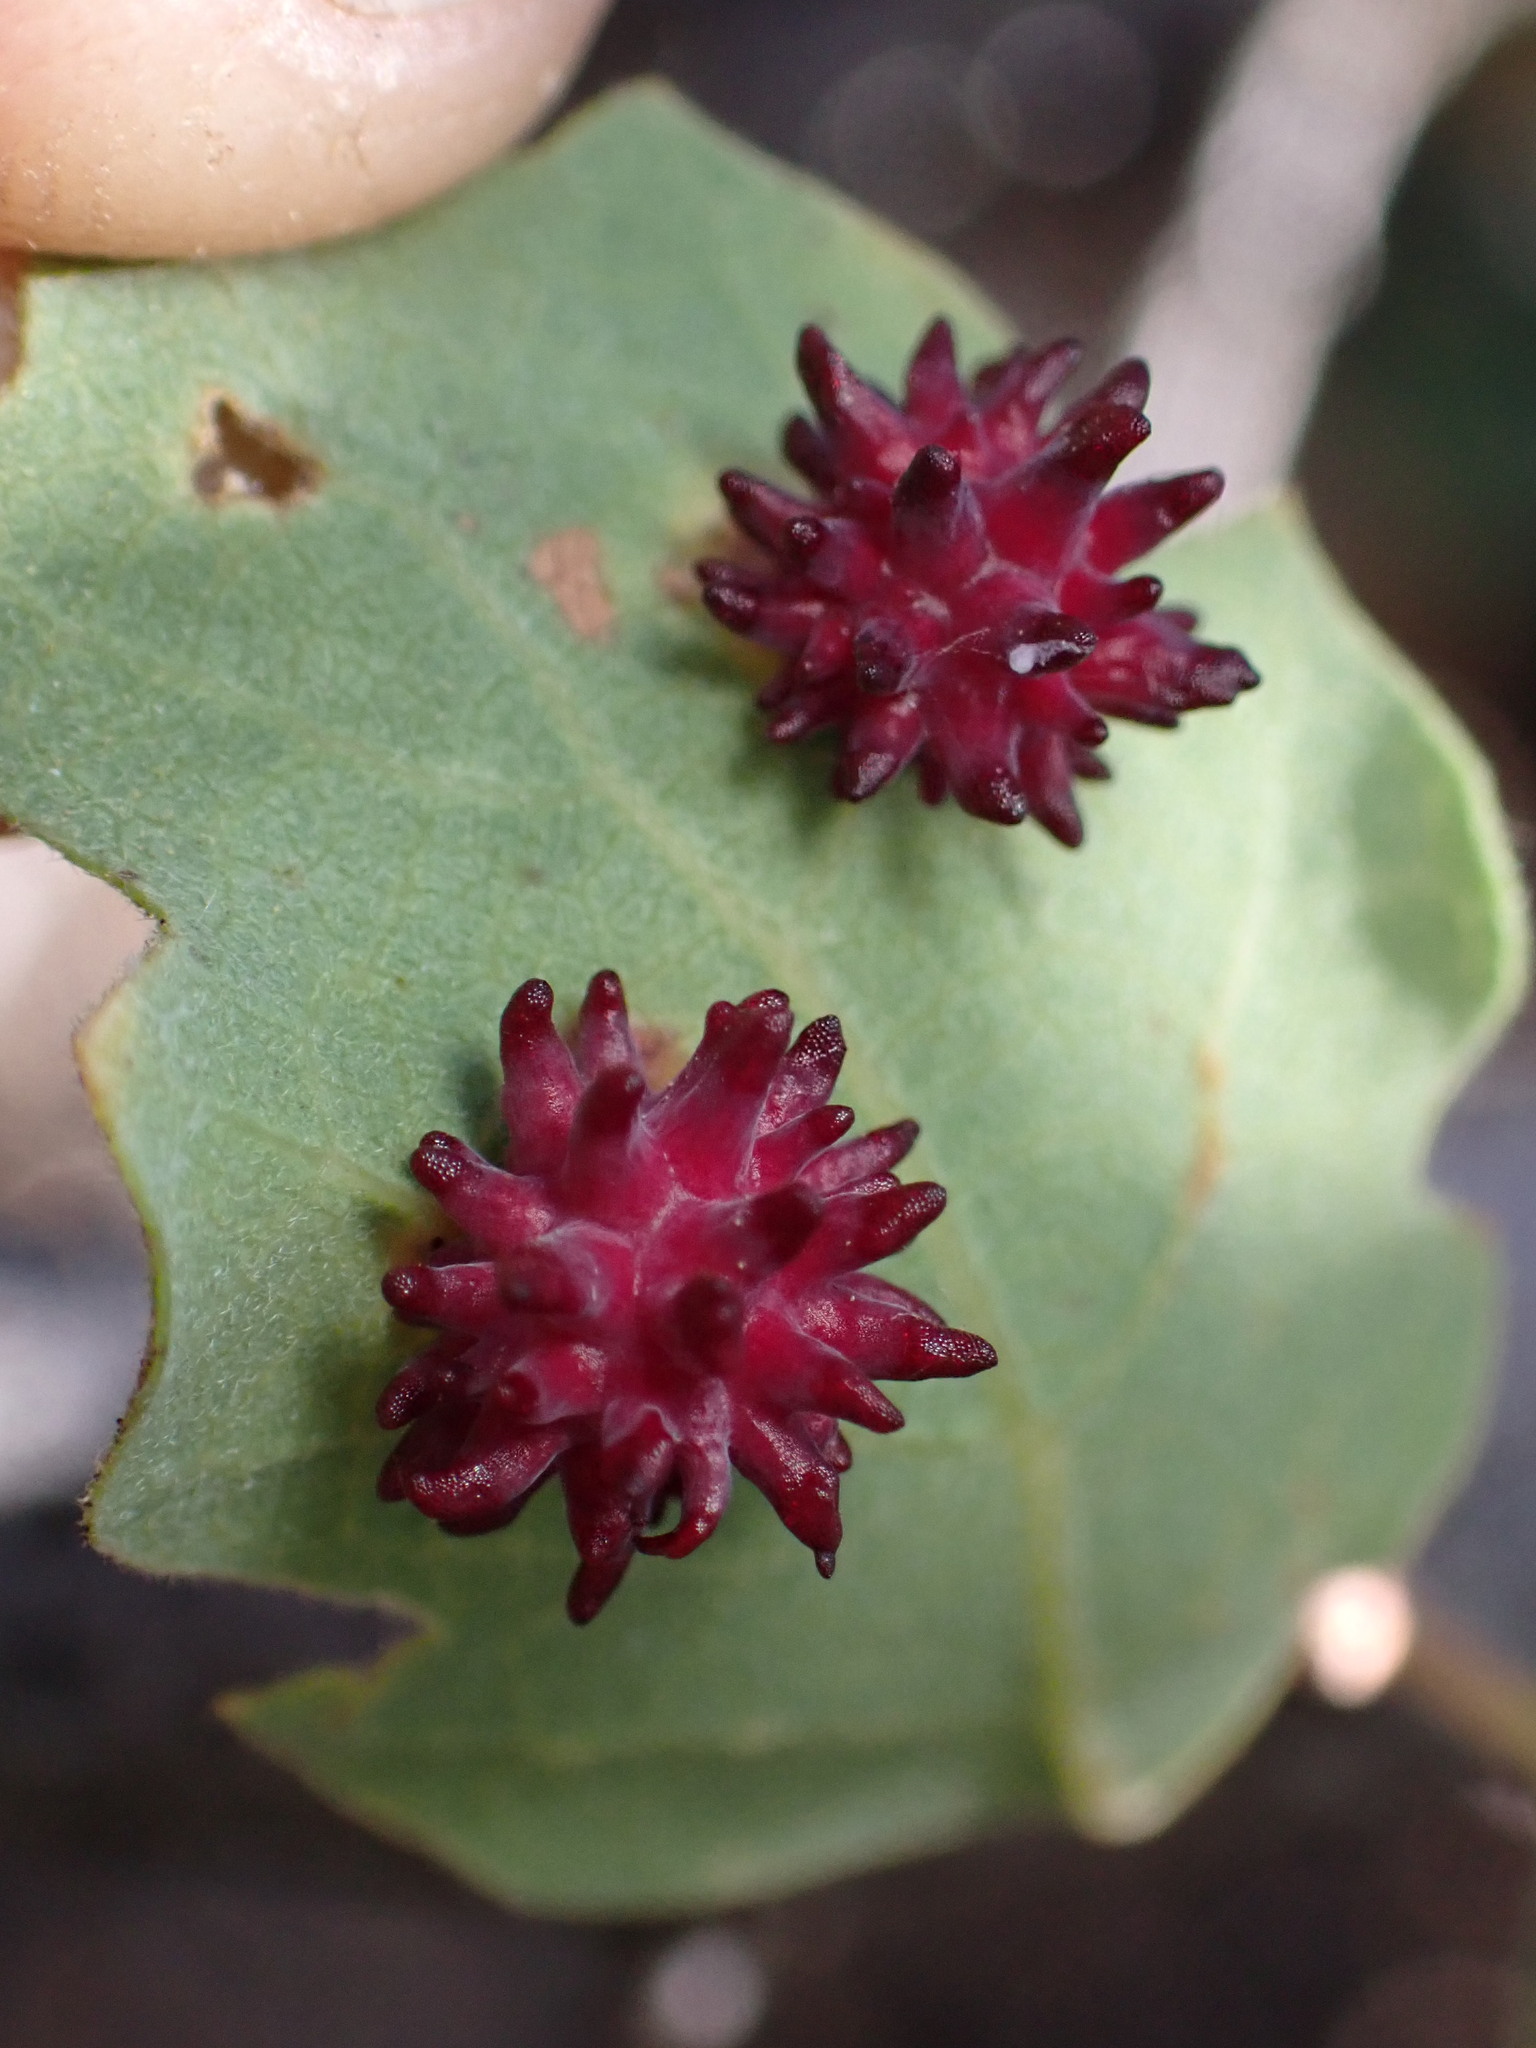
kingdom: Animalia
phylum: Arthropoda
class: Insecta
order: Hymenoptera
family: Cynipidae
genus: Cynips
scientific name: Cynips
